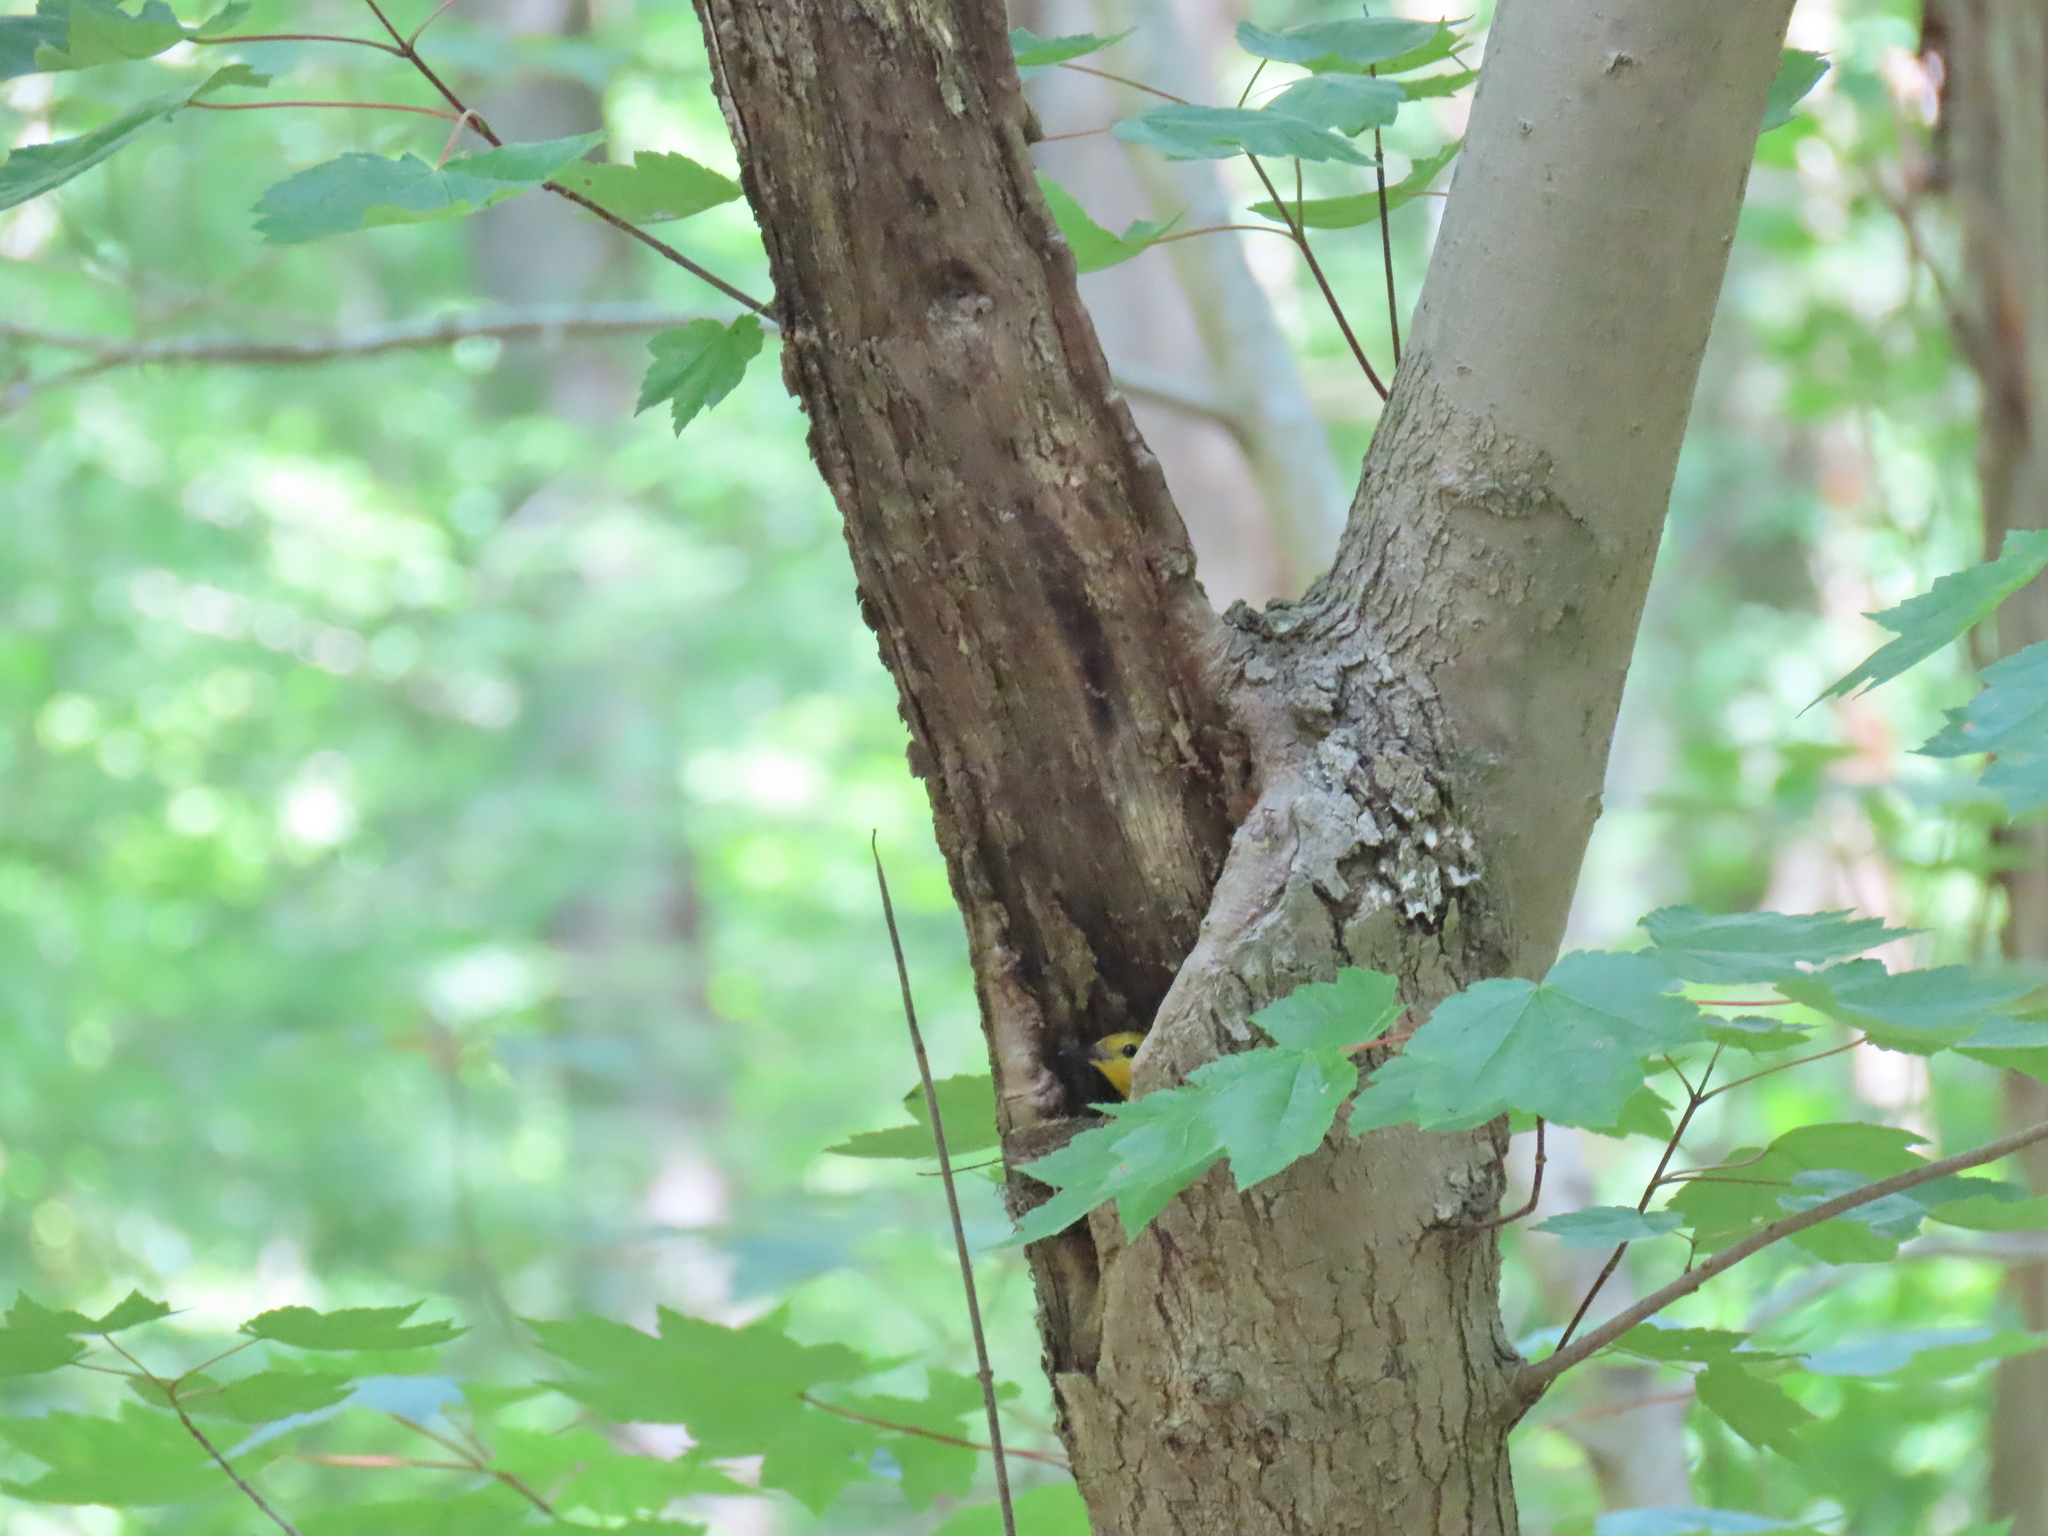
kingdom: Animalia
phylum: Chordata
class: Aves
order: Passeriformes
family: Parulidae
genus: Protonotaria
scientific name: Protonotaria citrea
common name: Prothonotary warbler
